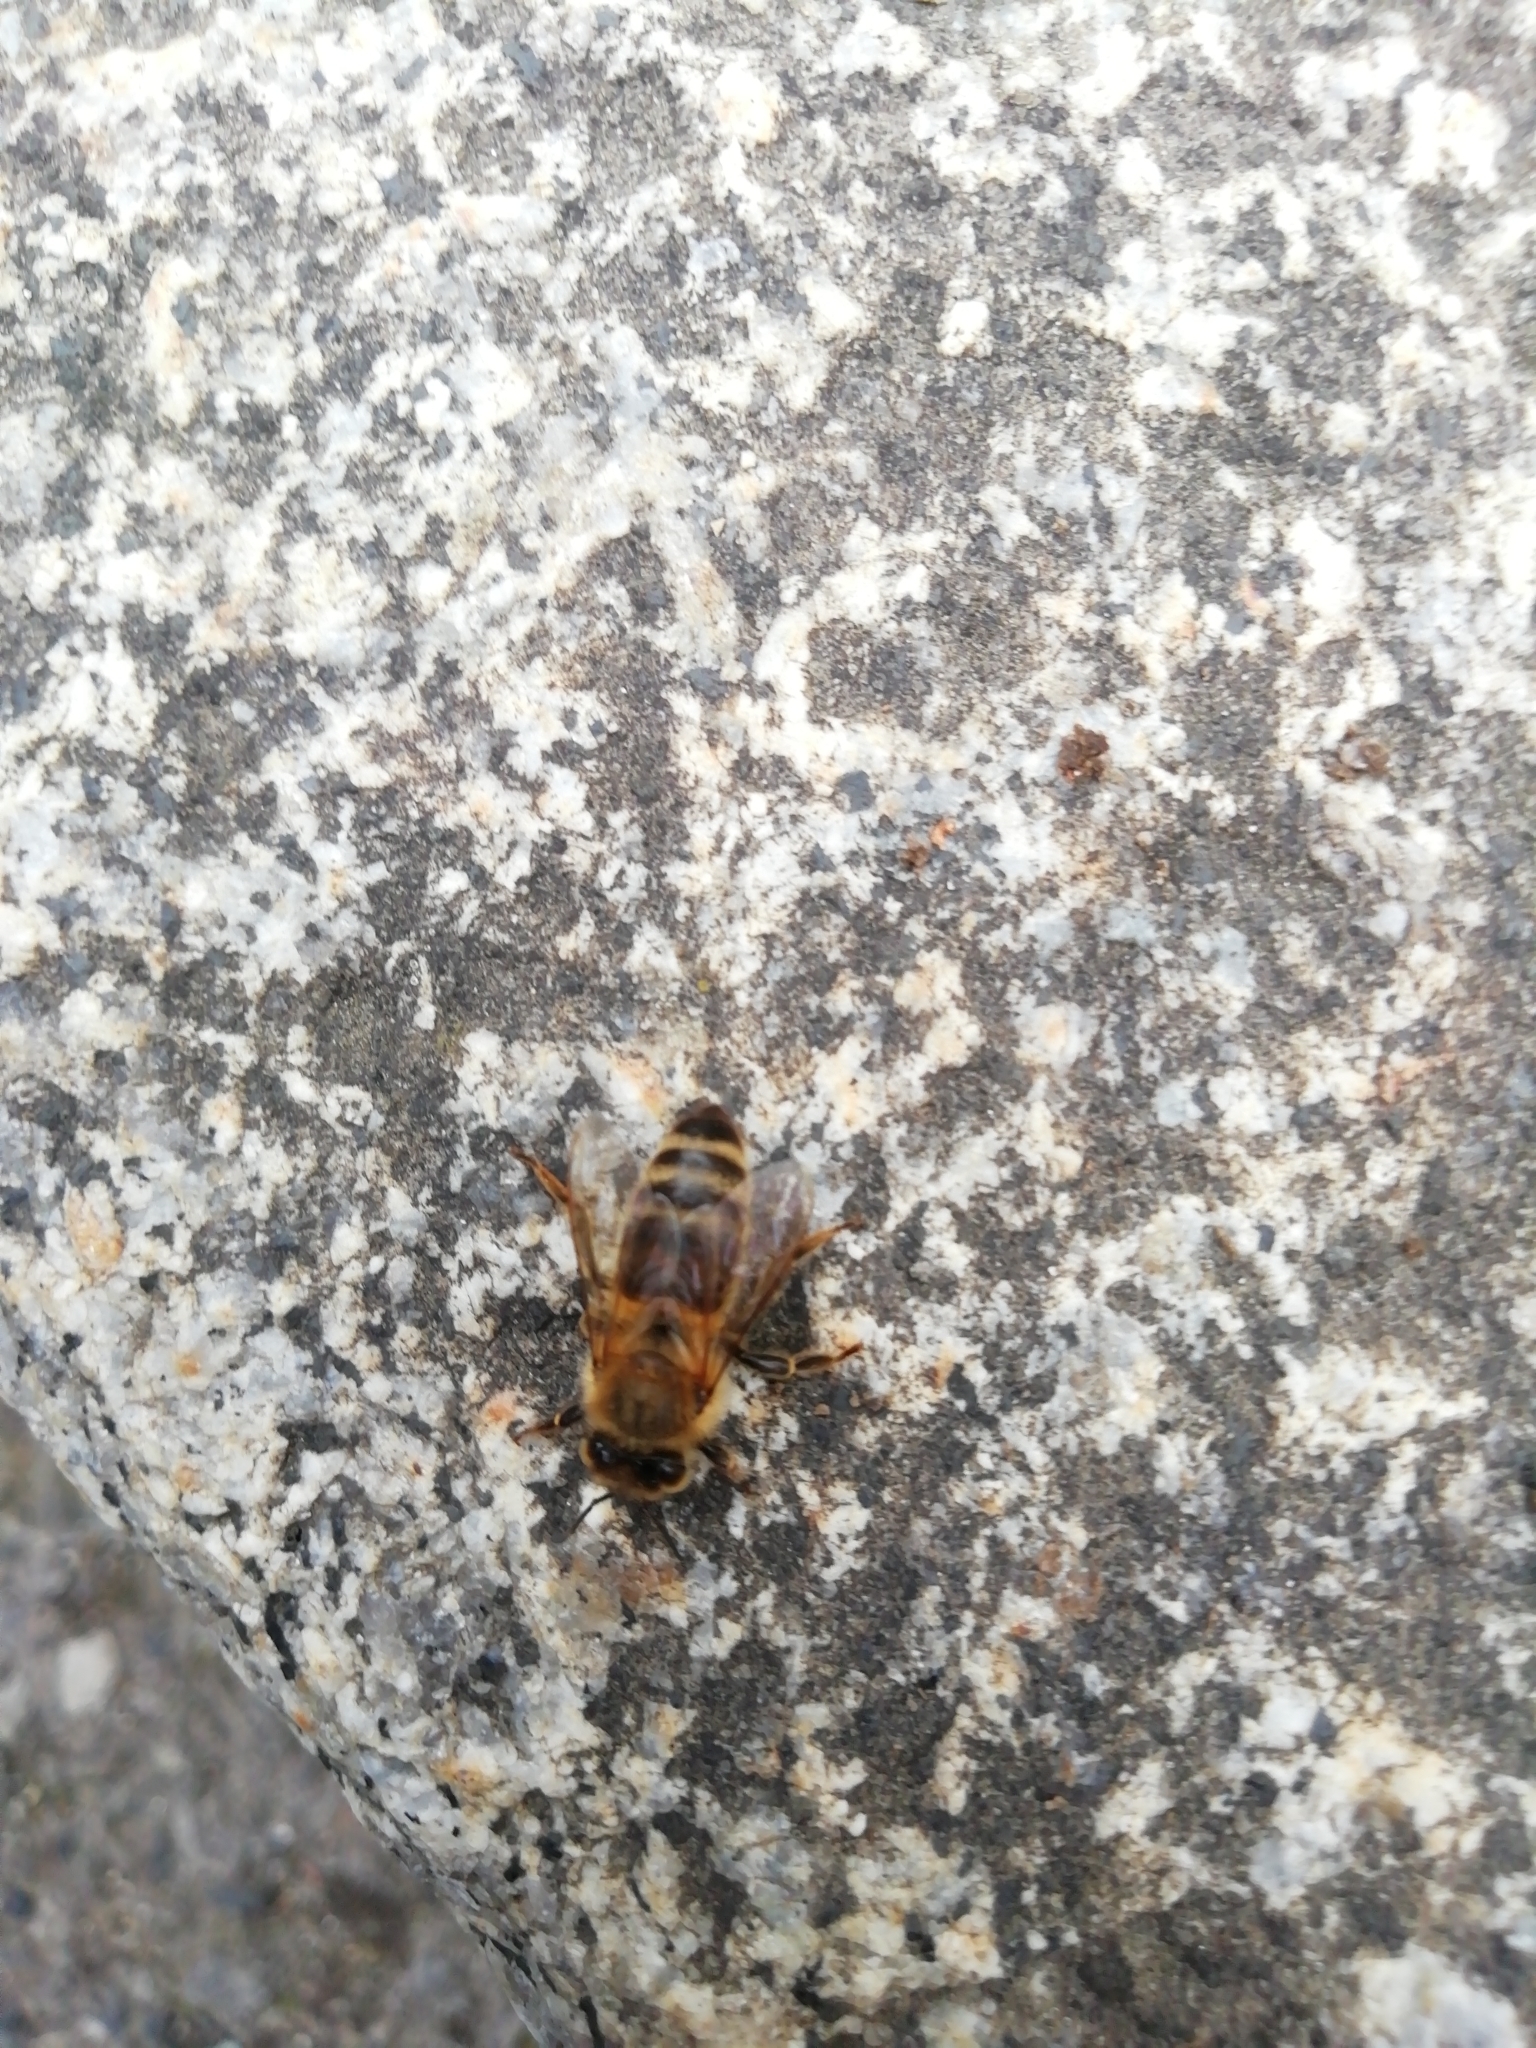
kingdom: Animalia
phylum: Arthropoda
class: Insecta
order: Hymenoptera
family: Apidae
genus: Apis
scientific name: Apis mellifera
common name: Honey bee
